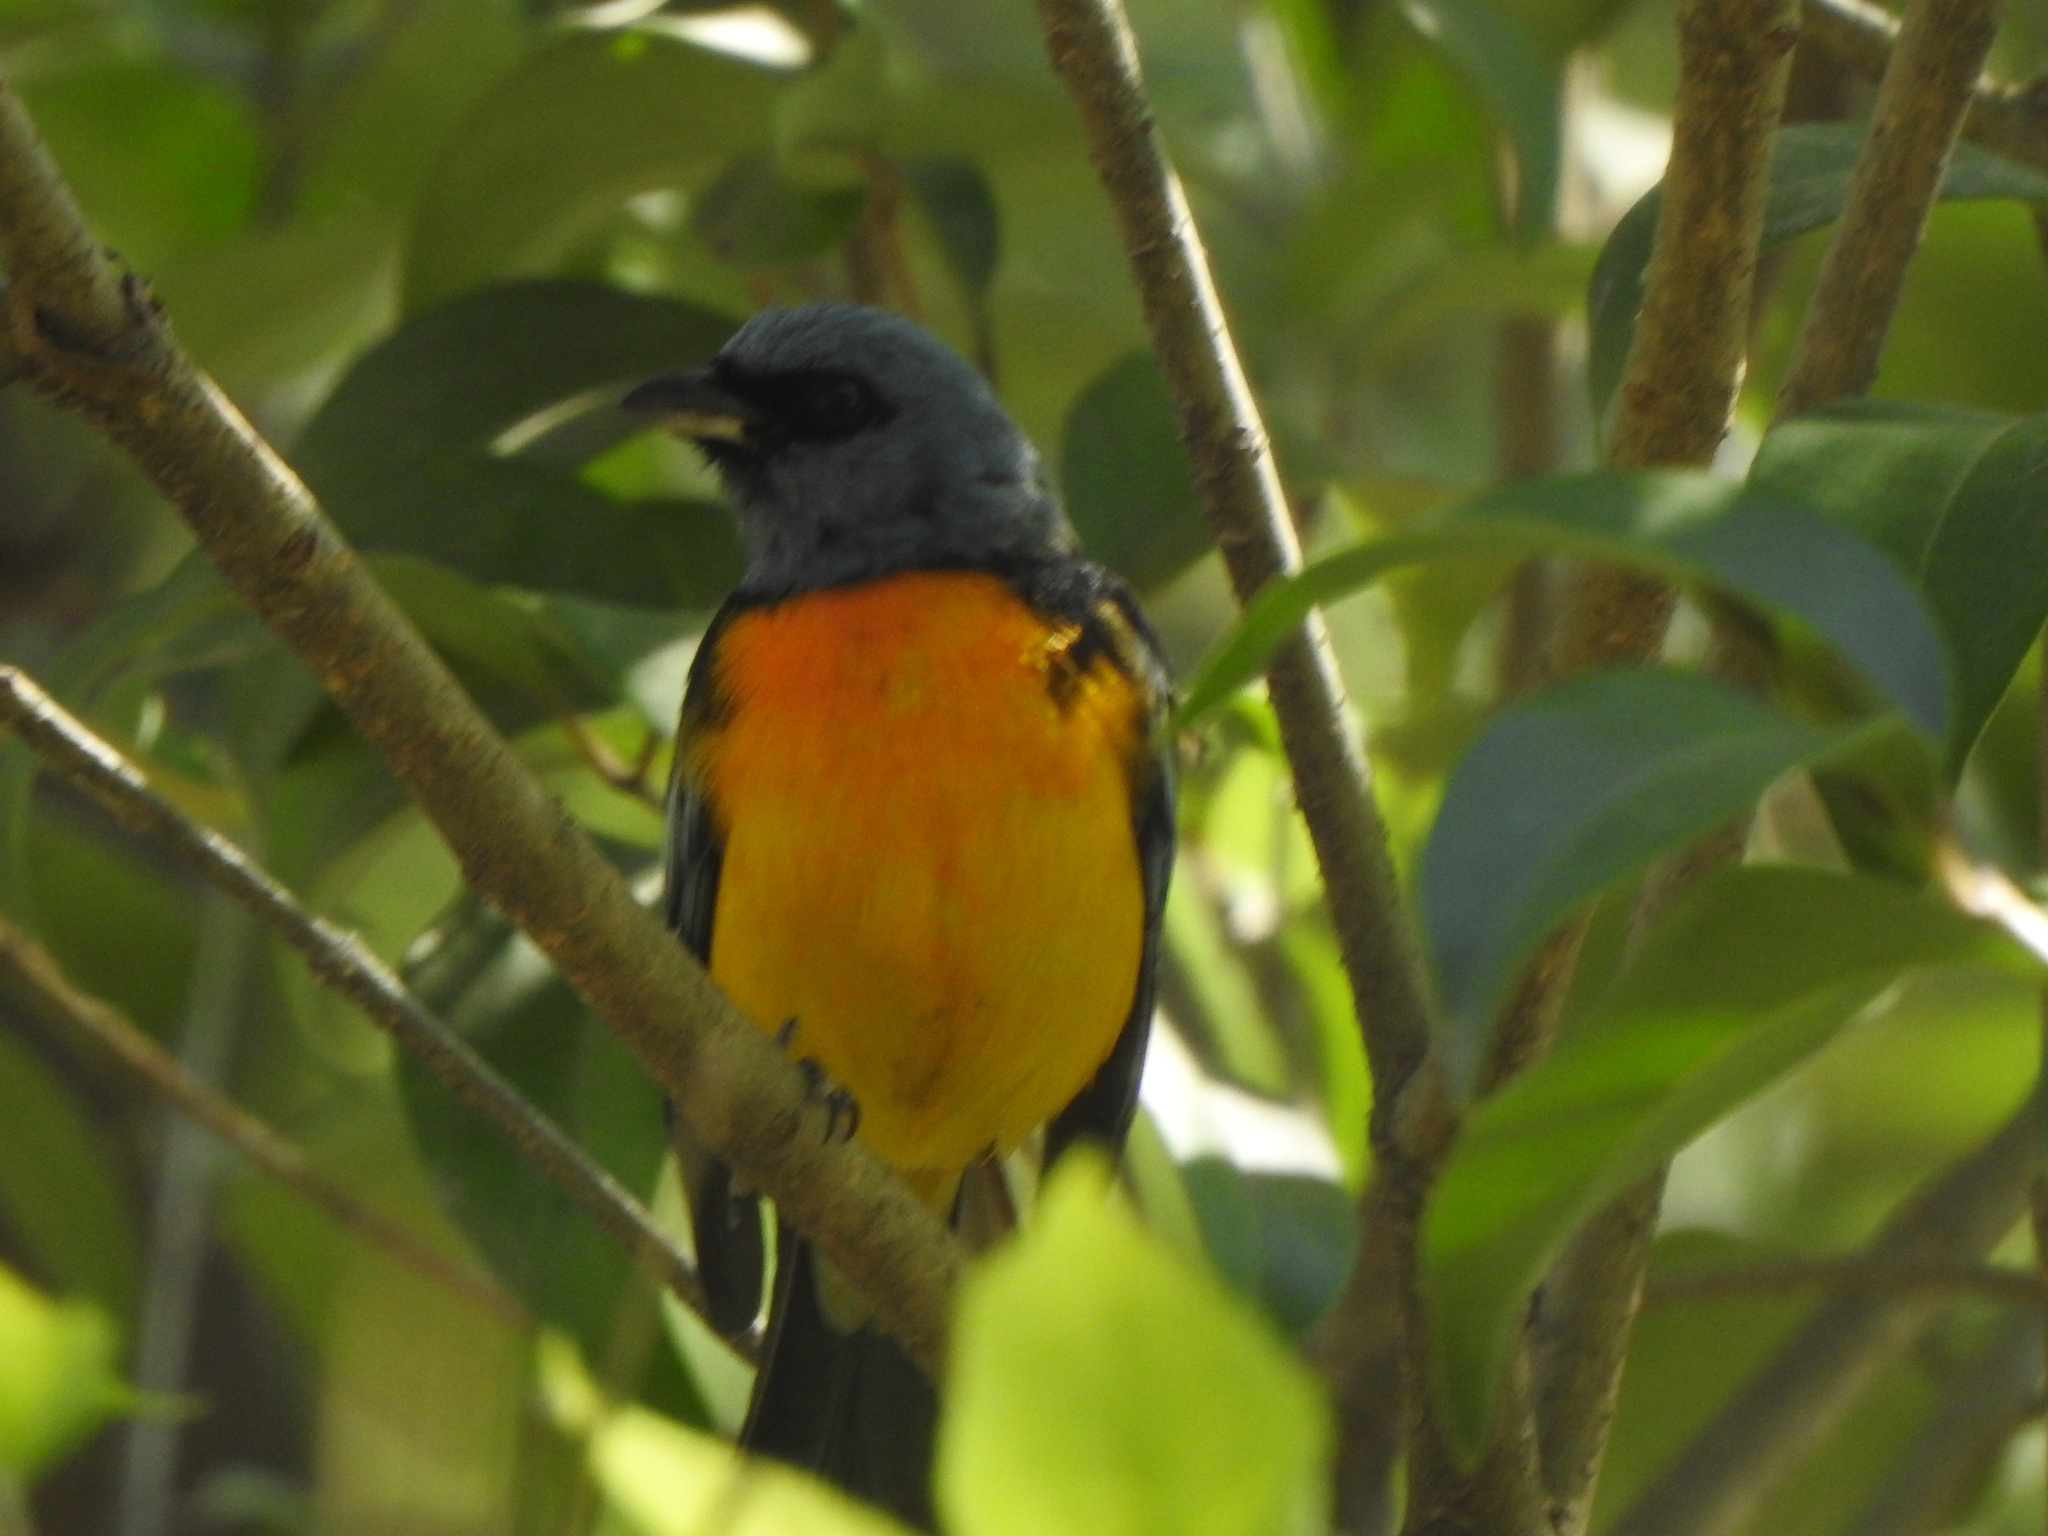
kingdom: Animalia
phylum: Chordata
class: Aves
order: Passeriformes
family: Thraupidae
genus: Rauenia
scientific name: Rauenia bonariensis
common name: Blue-and-yellow tanager
